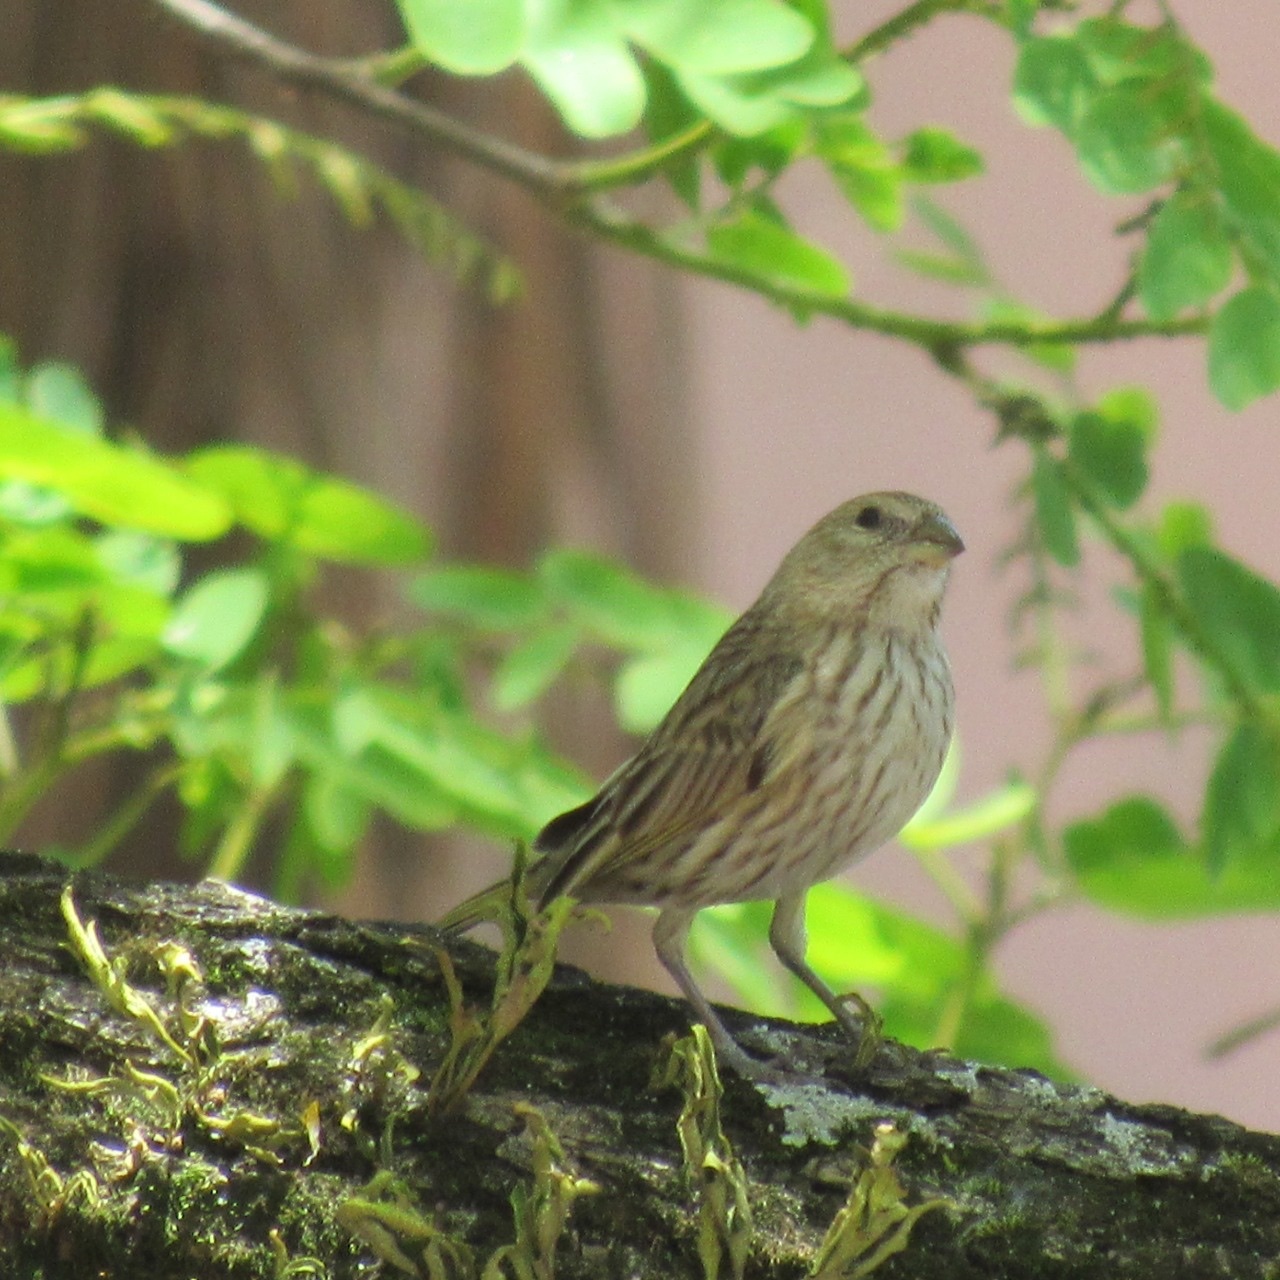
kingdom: Animalia
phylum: Chordata
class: Aves
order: Passeriformes
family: Thraupidae
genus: Sicalis
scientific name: Sicalis flaveola
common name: Saffron finch
